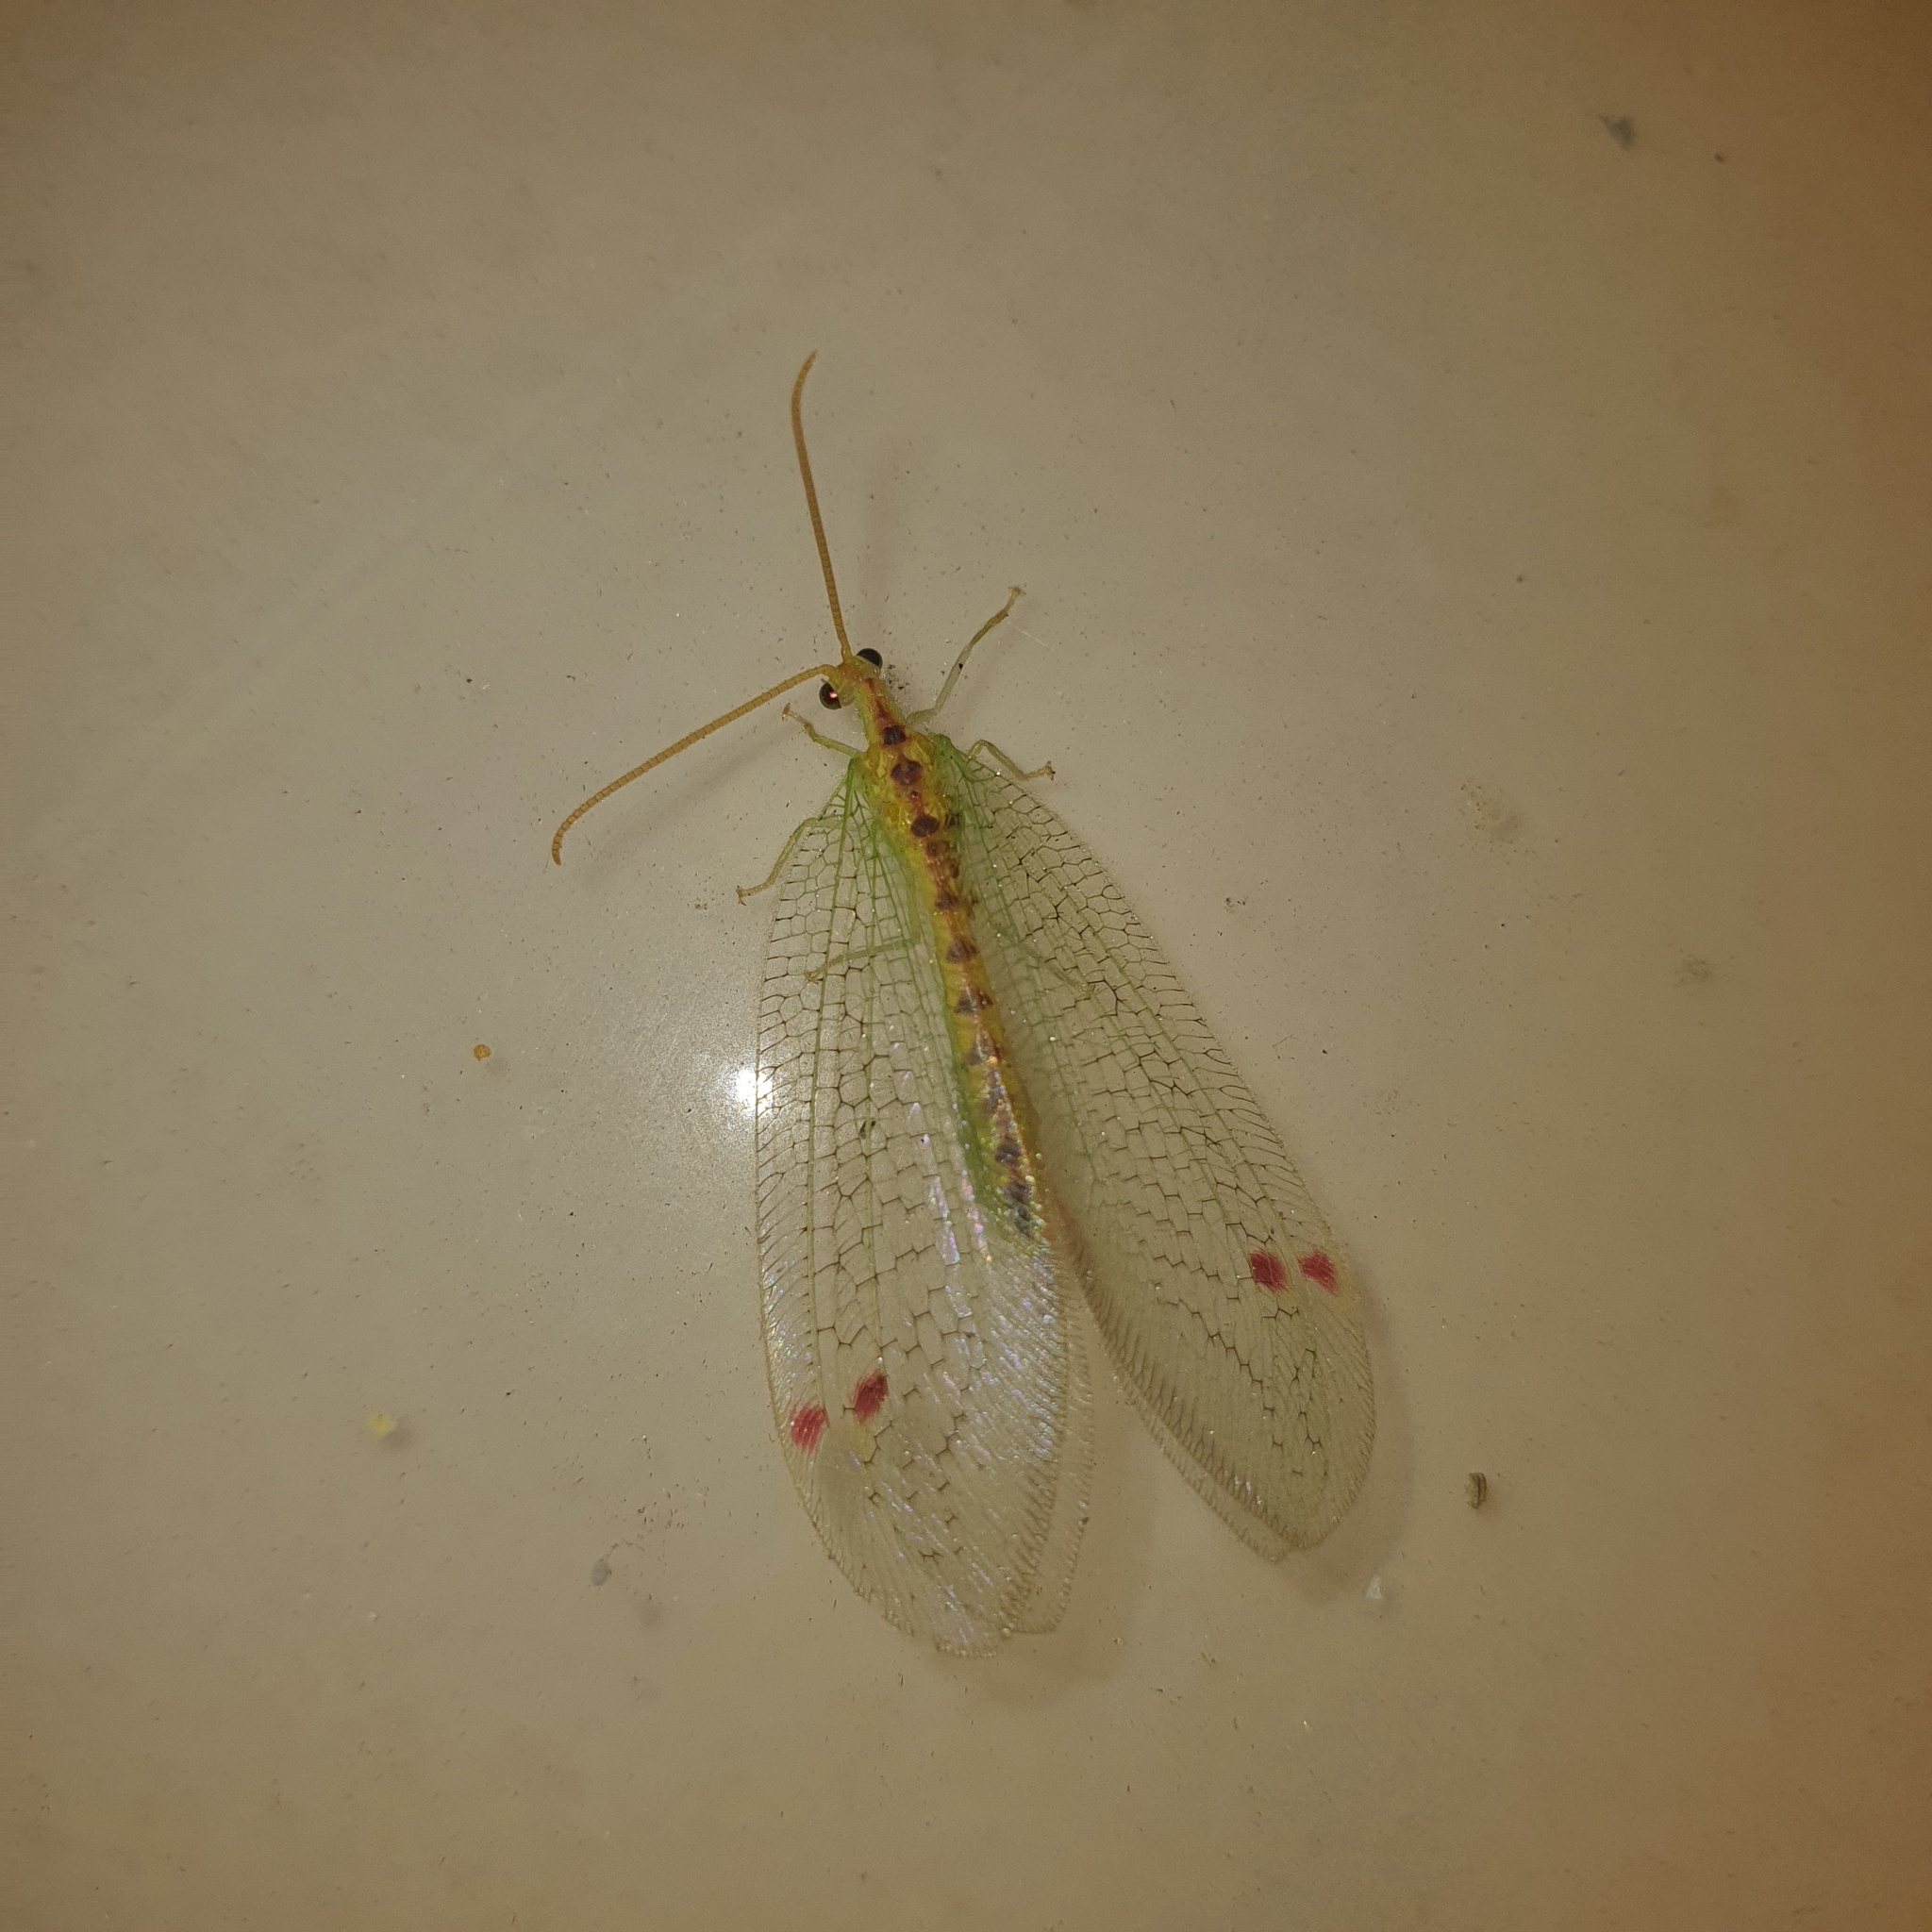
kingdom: Animalia
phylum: Arthropoda
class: Insecta
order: Neuroptera
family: Nymphidae
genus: Norfolius
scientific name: Norfolius howensis
